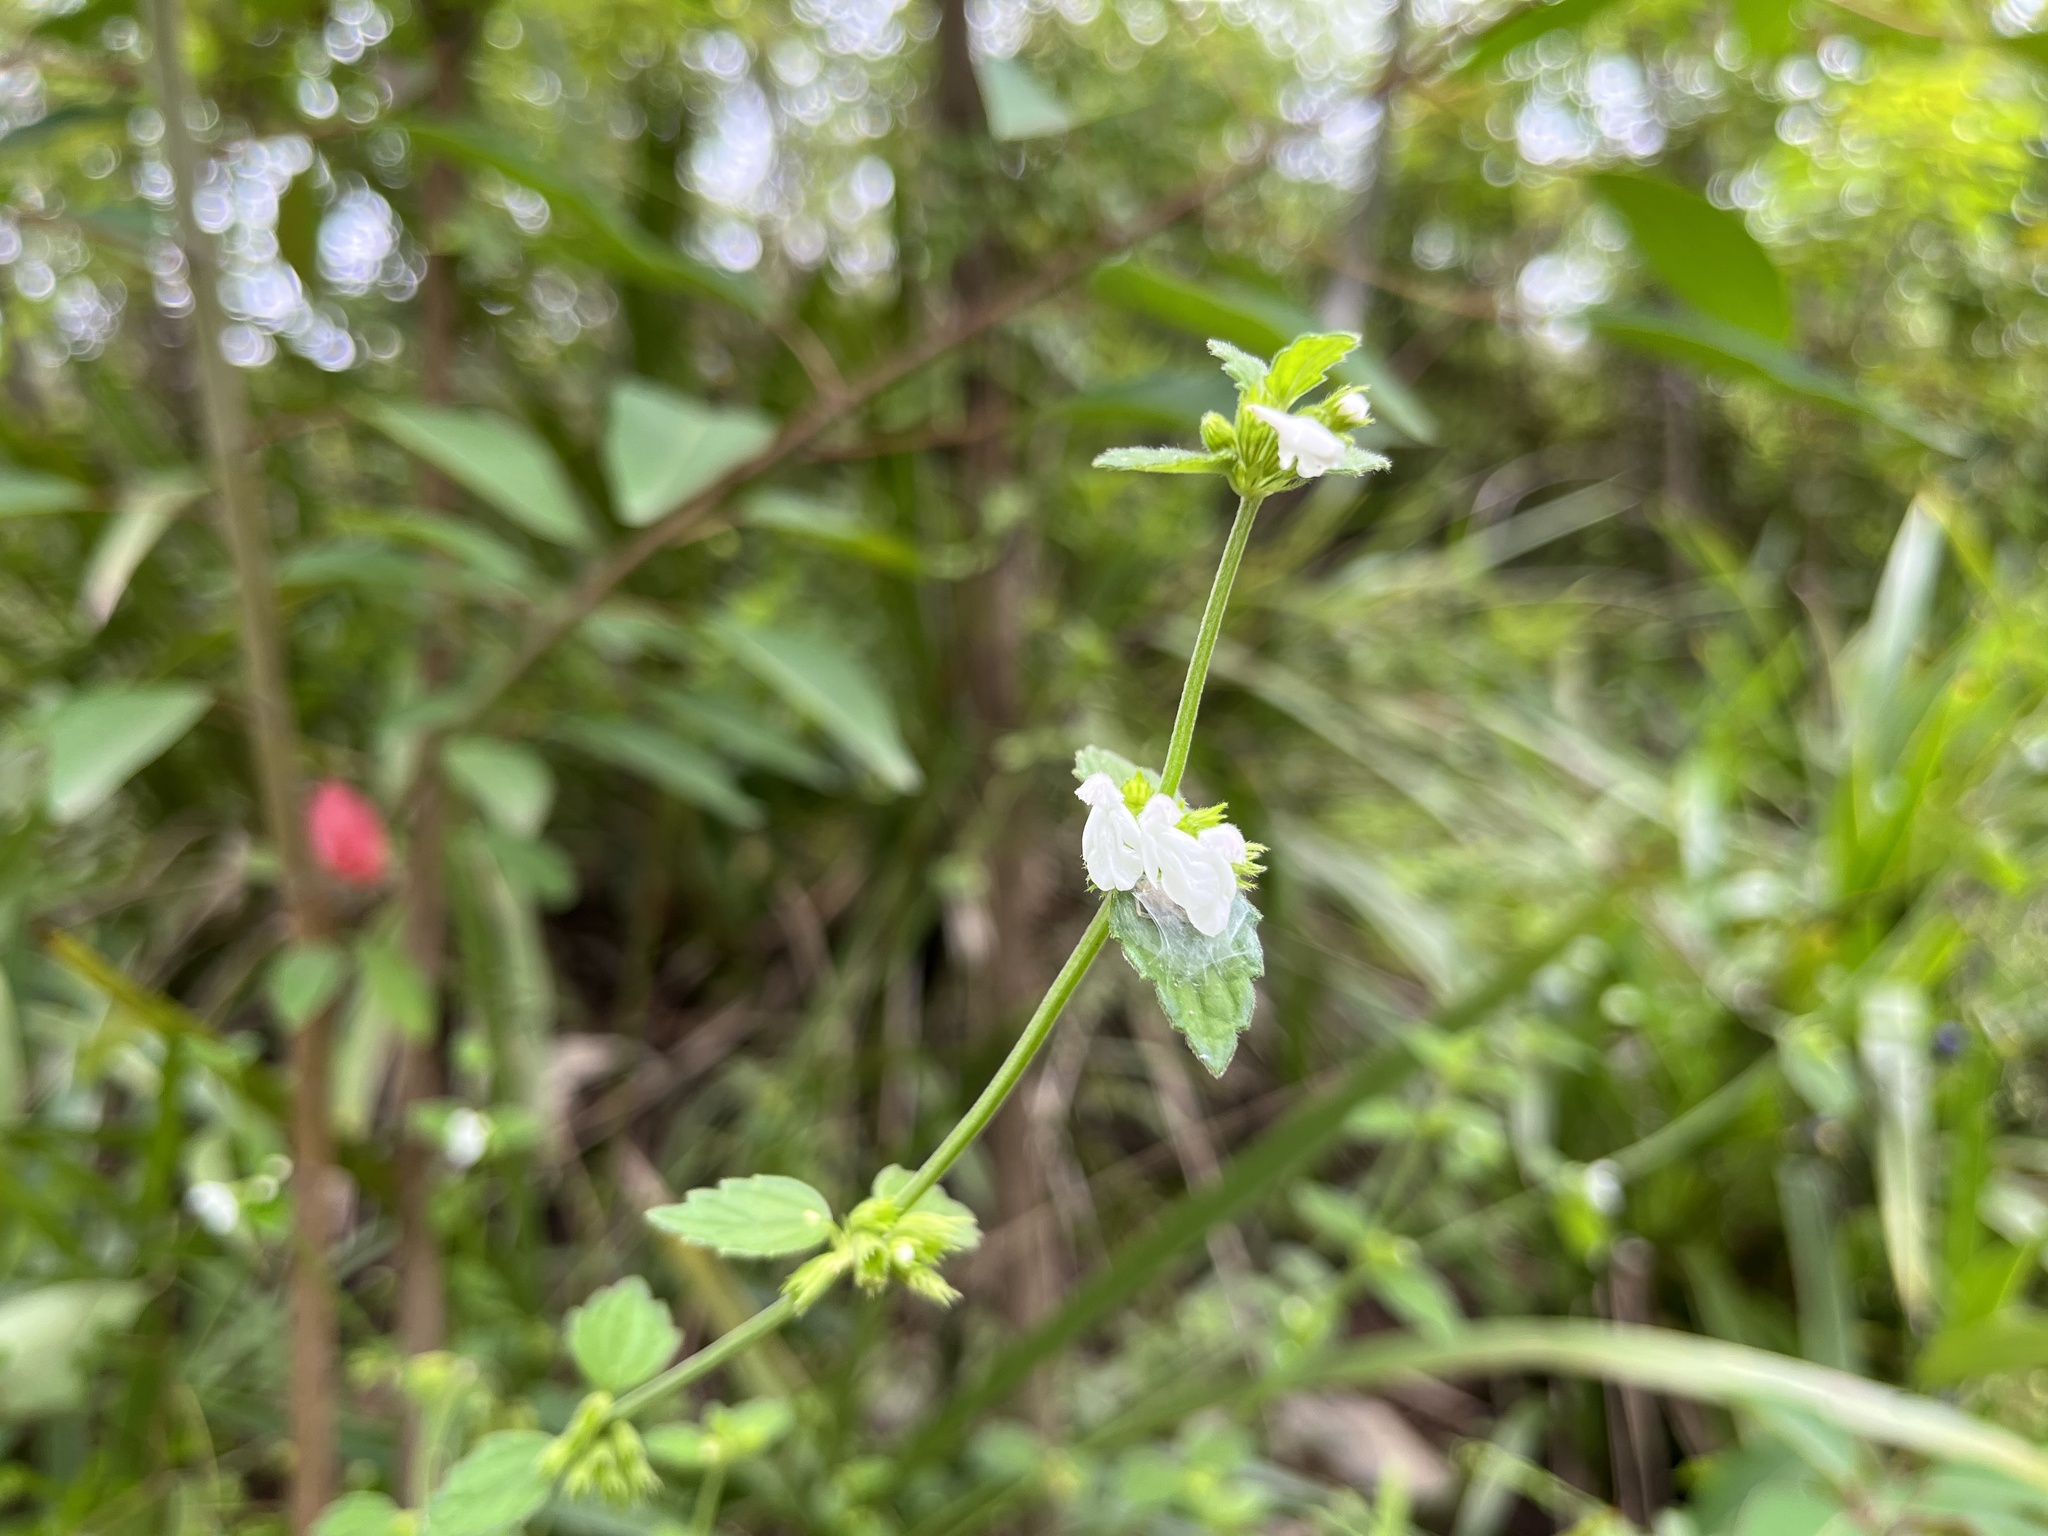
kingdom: Plantae
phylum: Tracheophyta
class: Magnoliopsida
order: Lamiales
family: Lamiaceae
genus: Leucas
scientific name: Leucas chinensis
